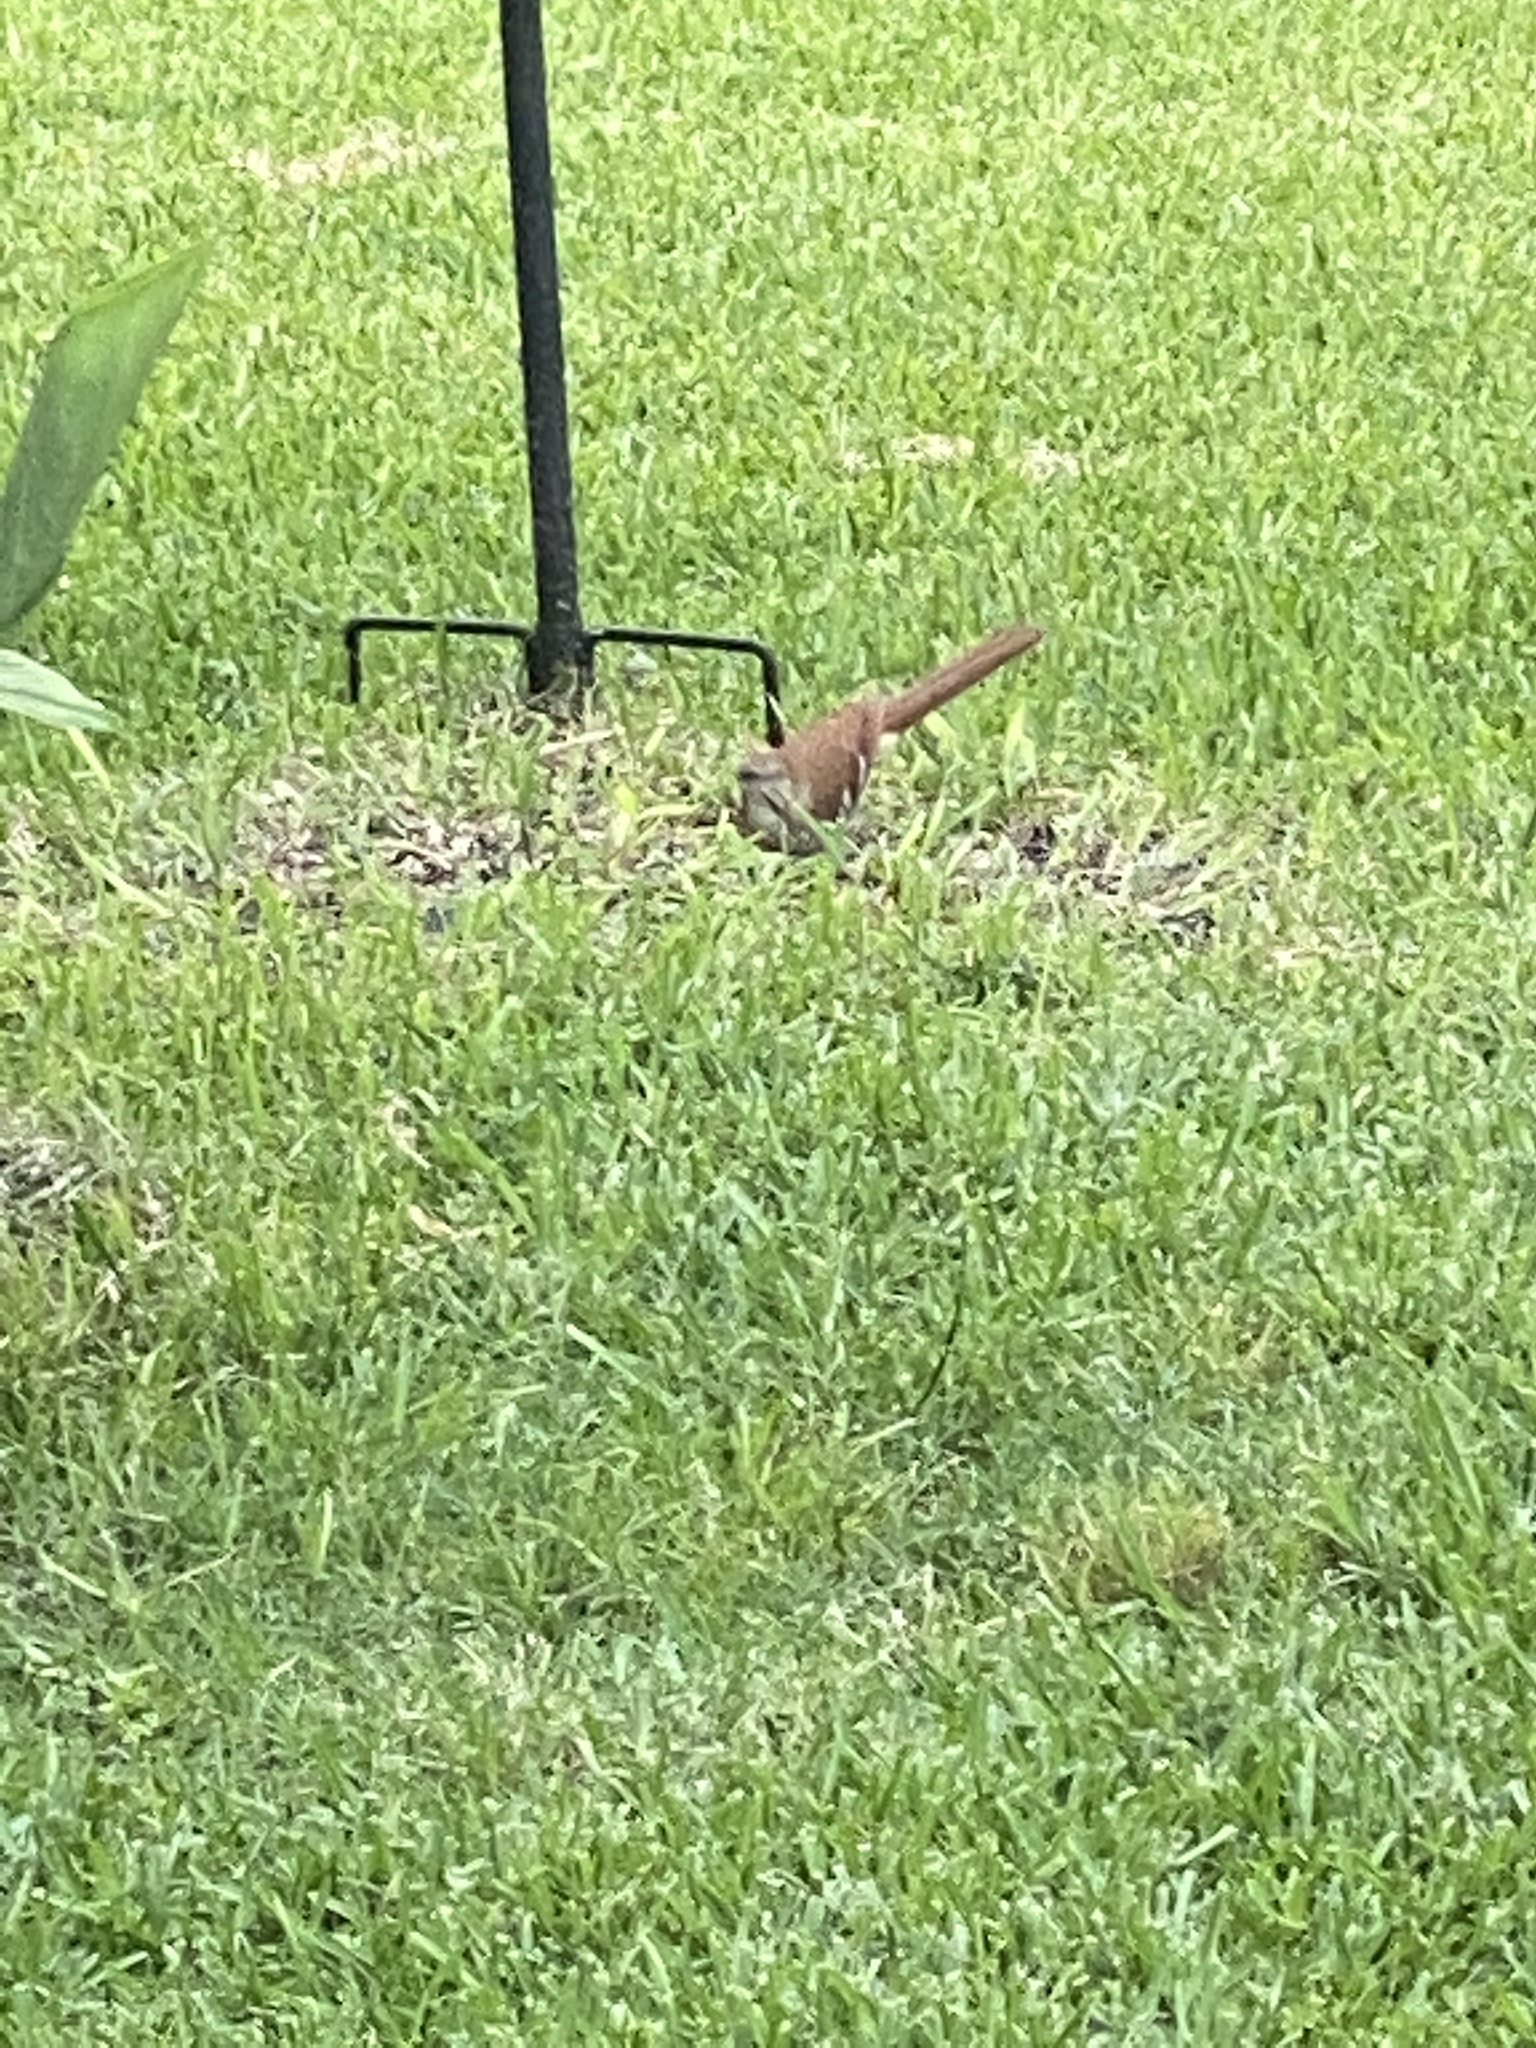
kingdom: Animalia
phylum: Chordata
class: Aves
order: Passeriformes
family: Mimidae
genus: Toxostoma
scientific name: Toxostoma rufum
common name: Brown thrasher
